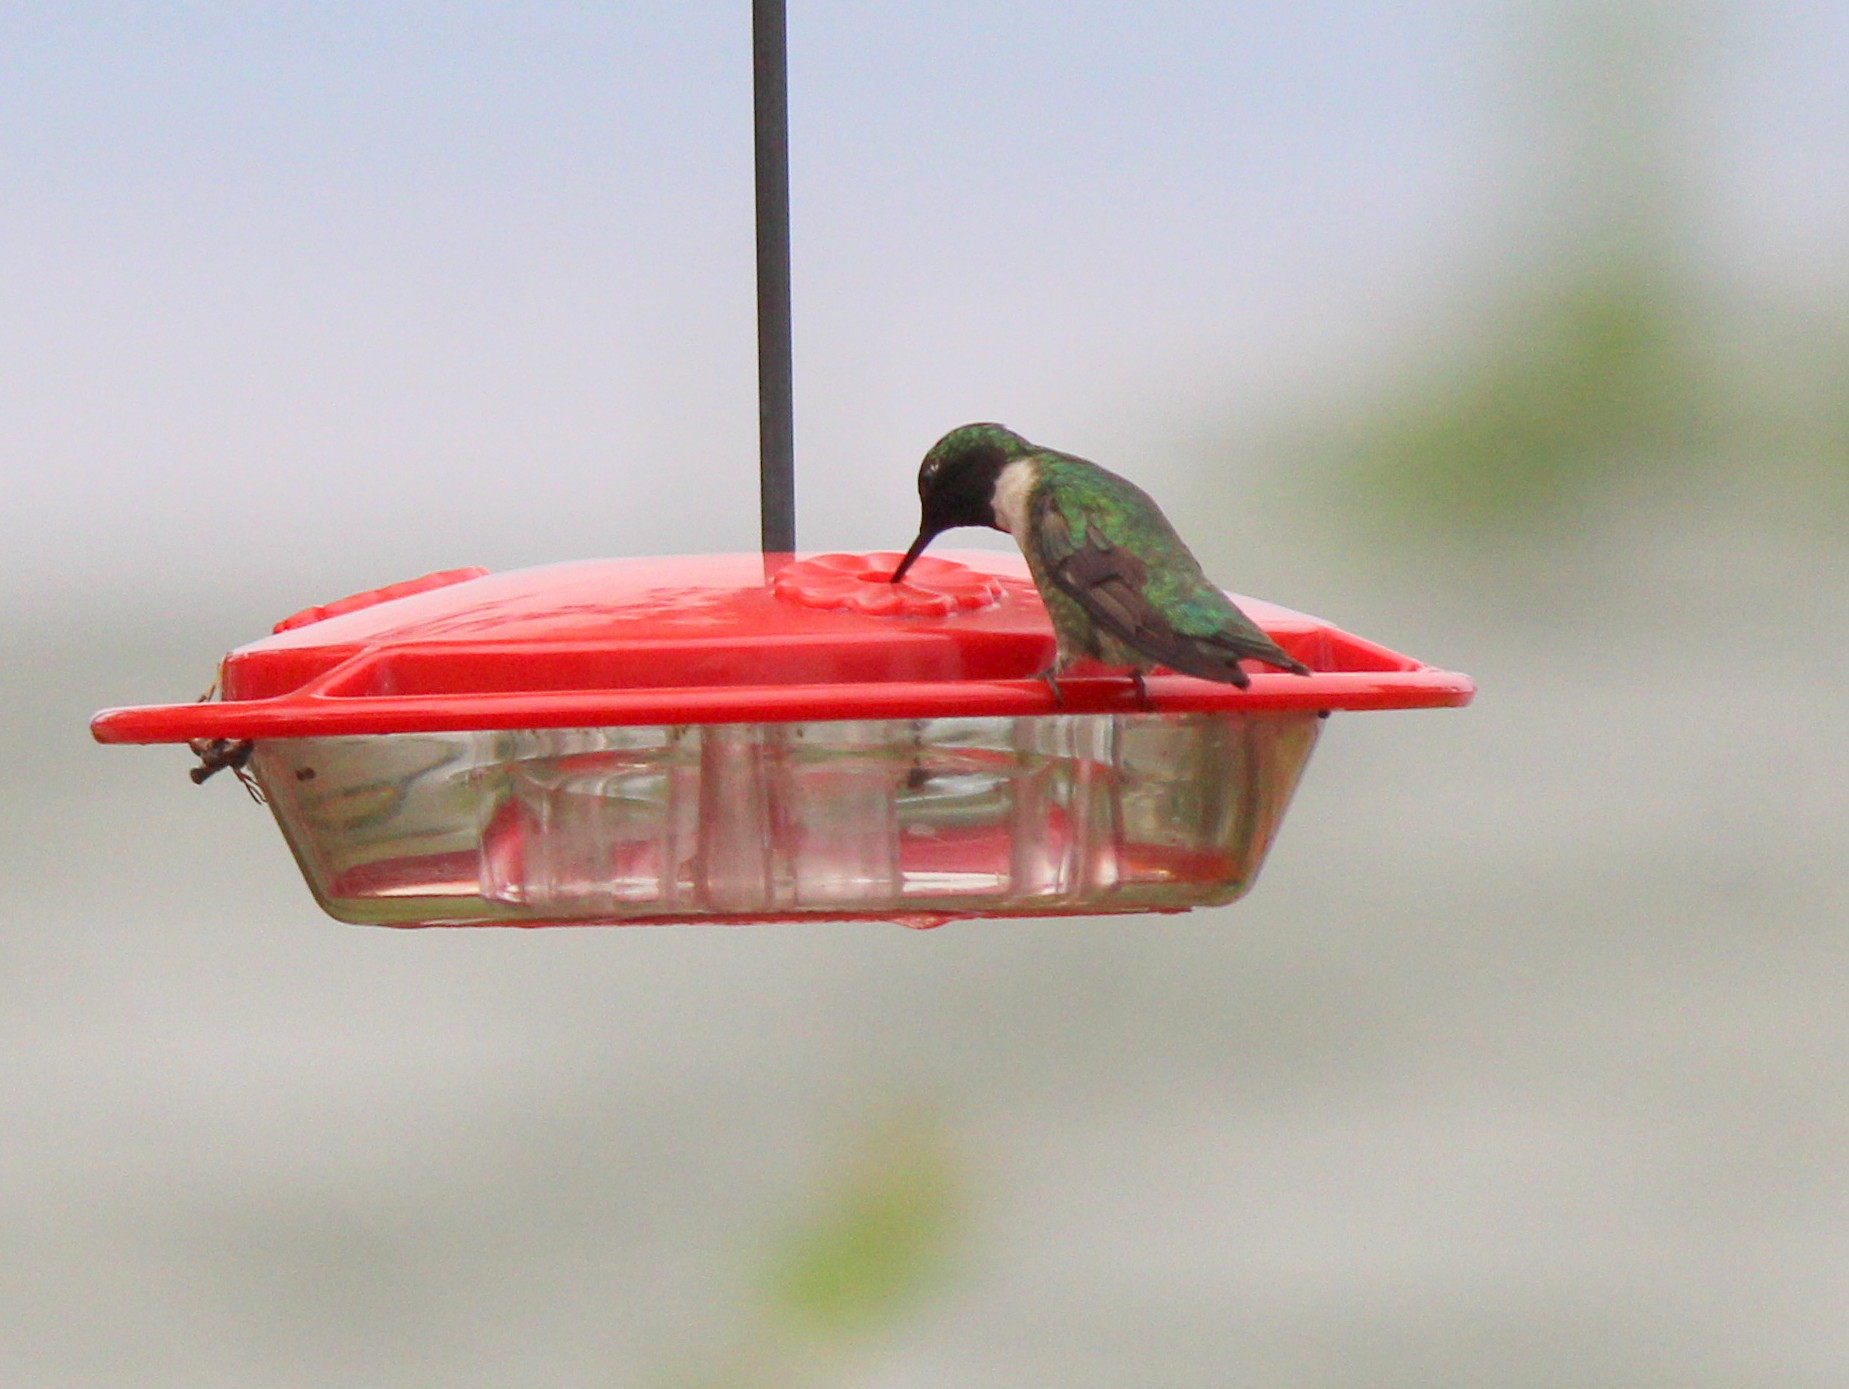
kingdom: Animalia
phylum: Chordata
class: Aves
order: Apodiformes
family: Trochilidae
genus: Archilochus
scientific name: Archilochus colubris
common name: Ruby-throated hummingbird
